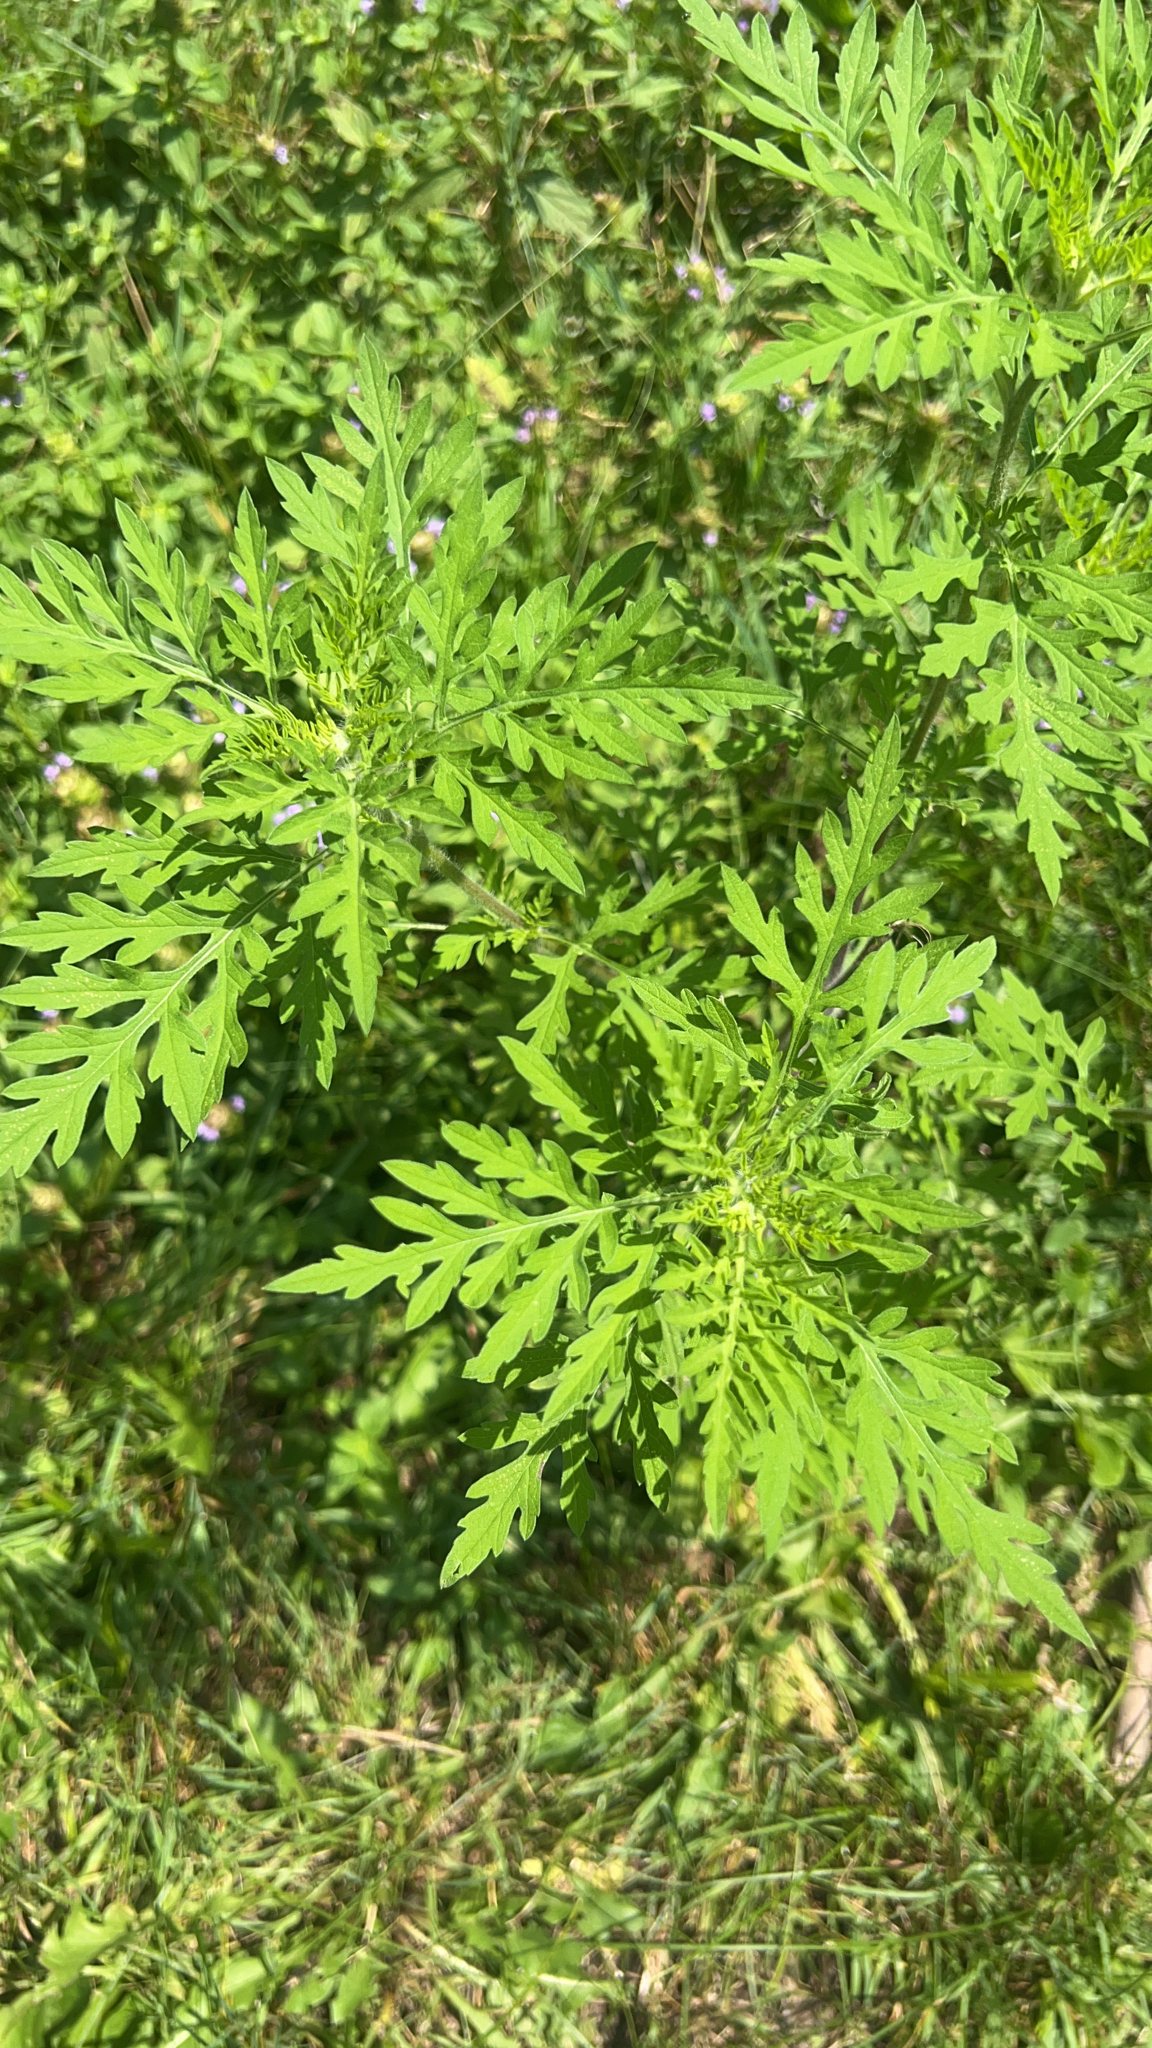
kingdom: Plantae
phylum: Tracheophyta
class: Magnoliopsida
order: Asterales
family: Asteraceae
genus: Ambrosia
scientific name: Ambrosia artemisiifolia
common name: Annual ragweed
